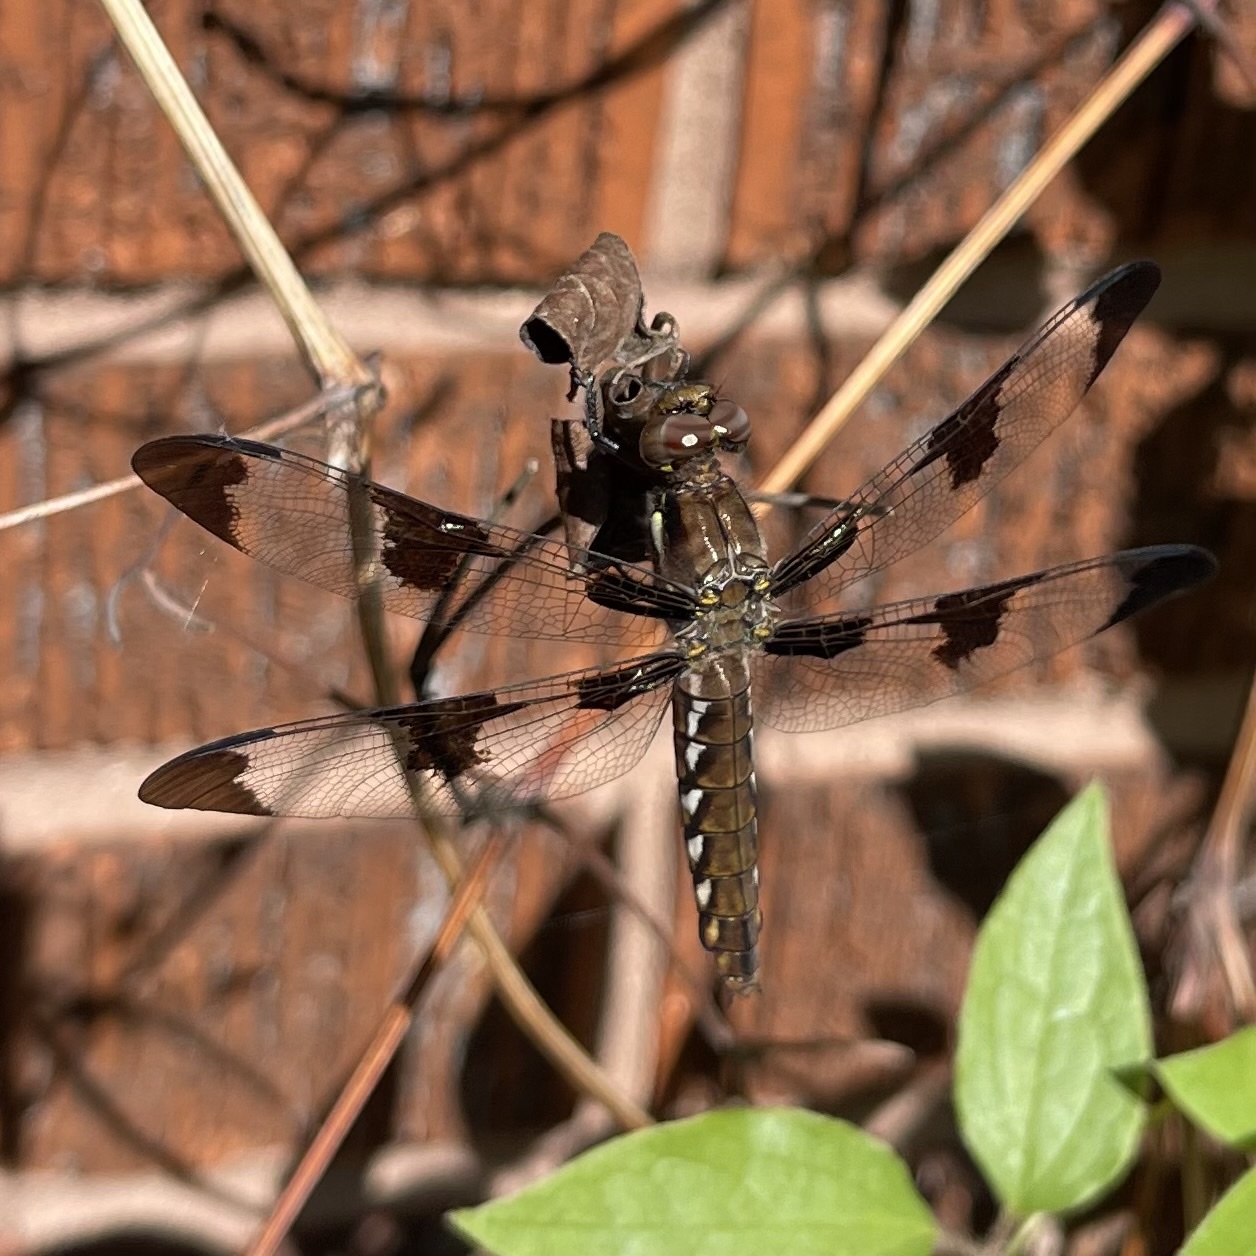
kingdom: Animalia
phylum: Arthropoda
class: Insecta
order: Odonata
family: Libellulidae
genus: Plathemis
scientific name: Plathemis lydia
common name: Common whitetail
